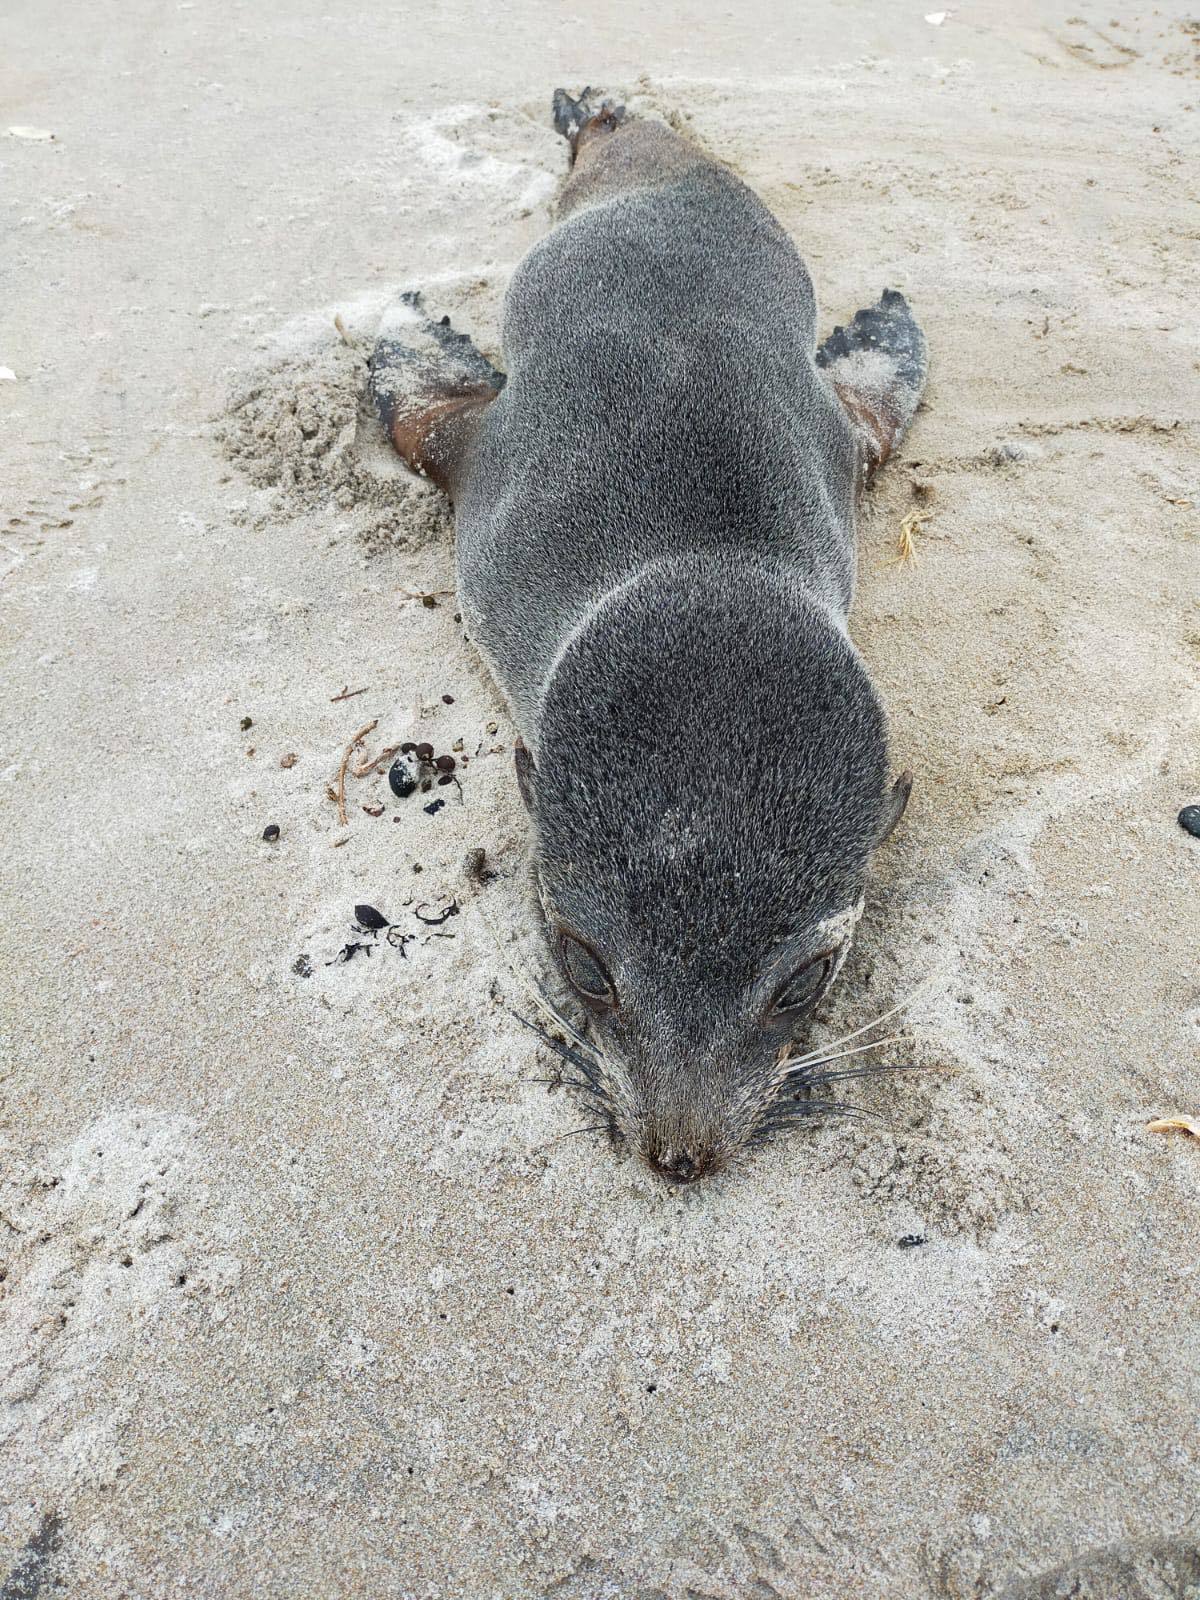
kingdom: Animalia
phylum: Chordata
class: Mammalia
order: Carnivora
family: Otariidae
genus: Arctocephalus
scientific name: Arctocephalus forsteri
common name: New zealand fur seal
